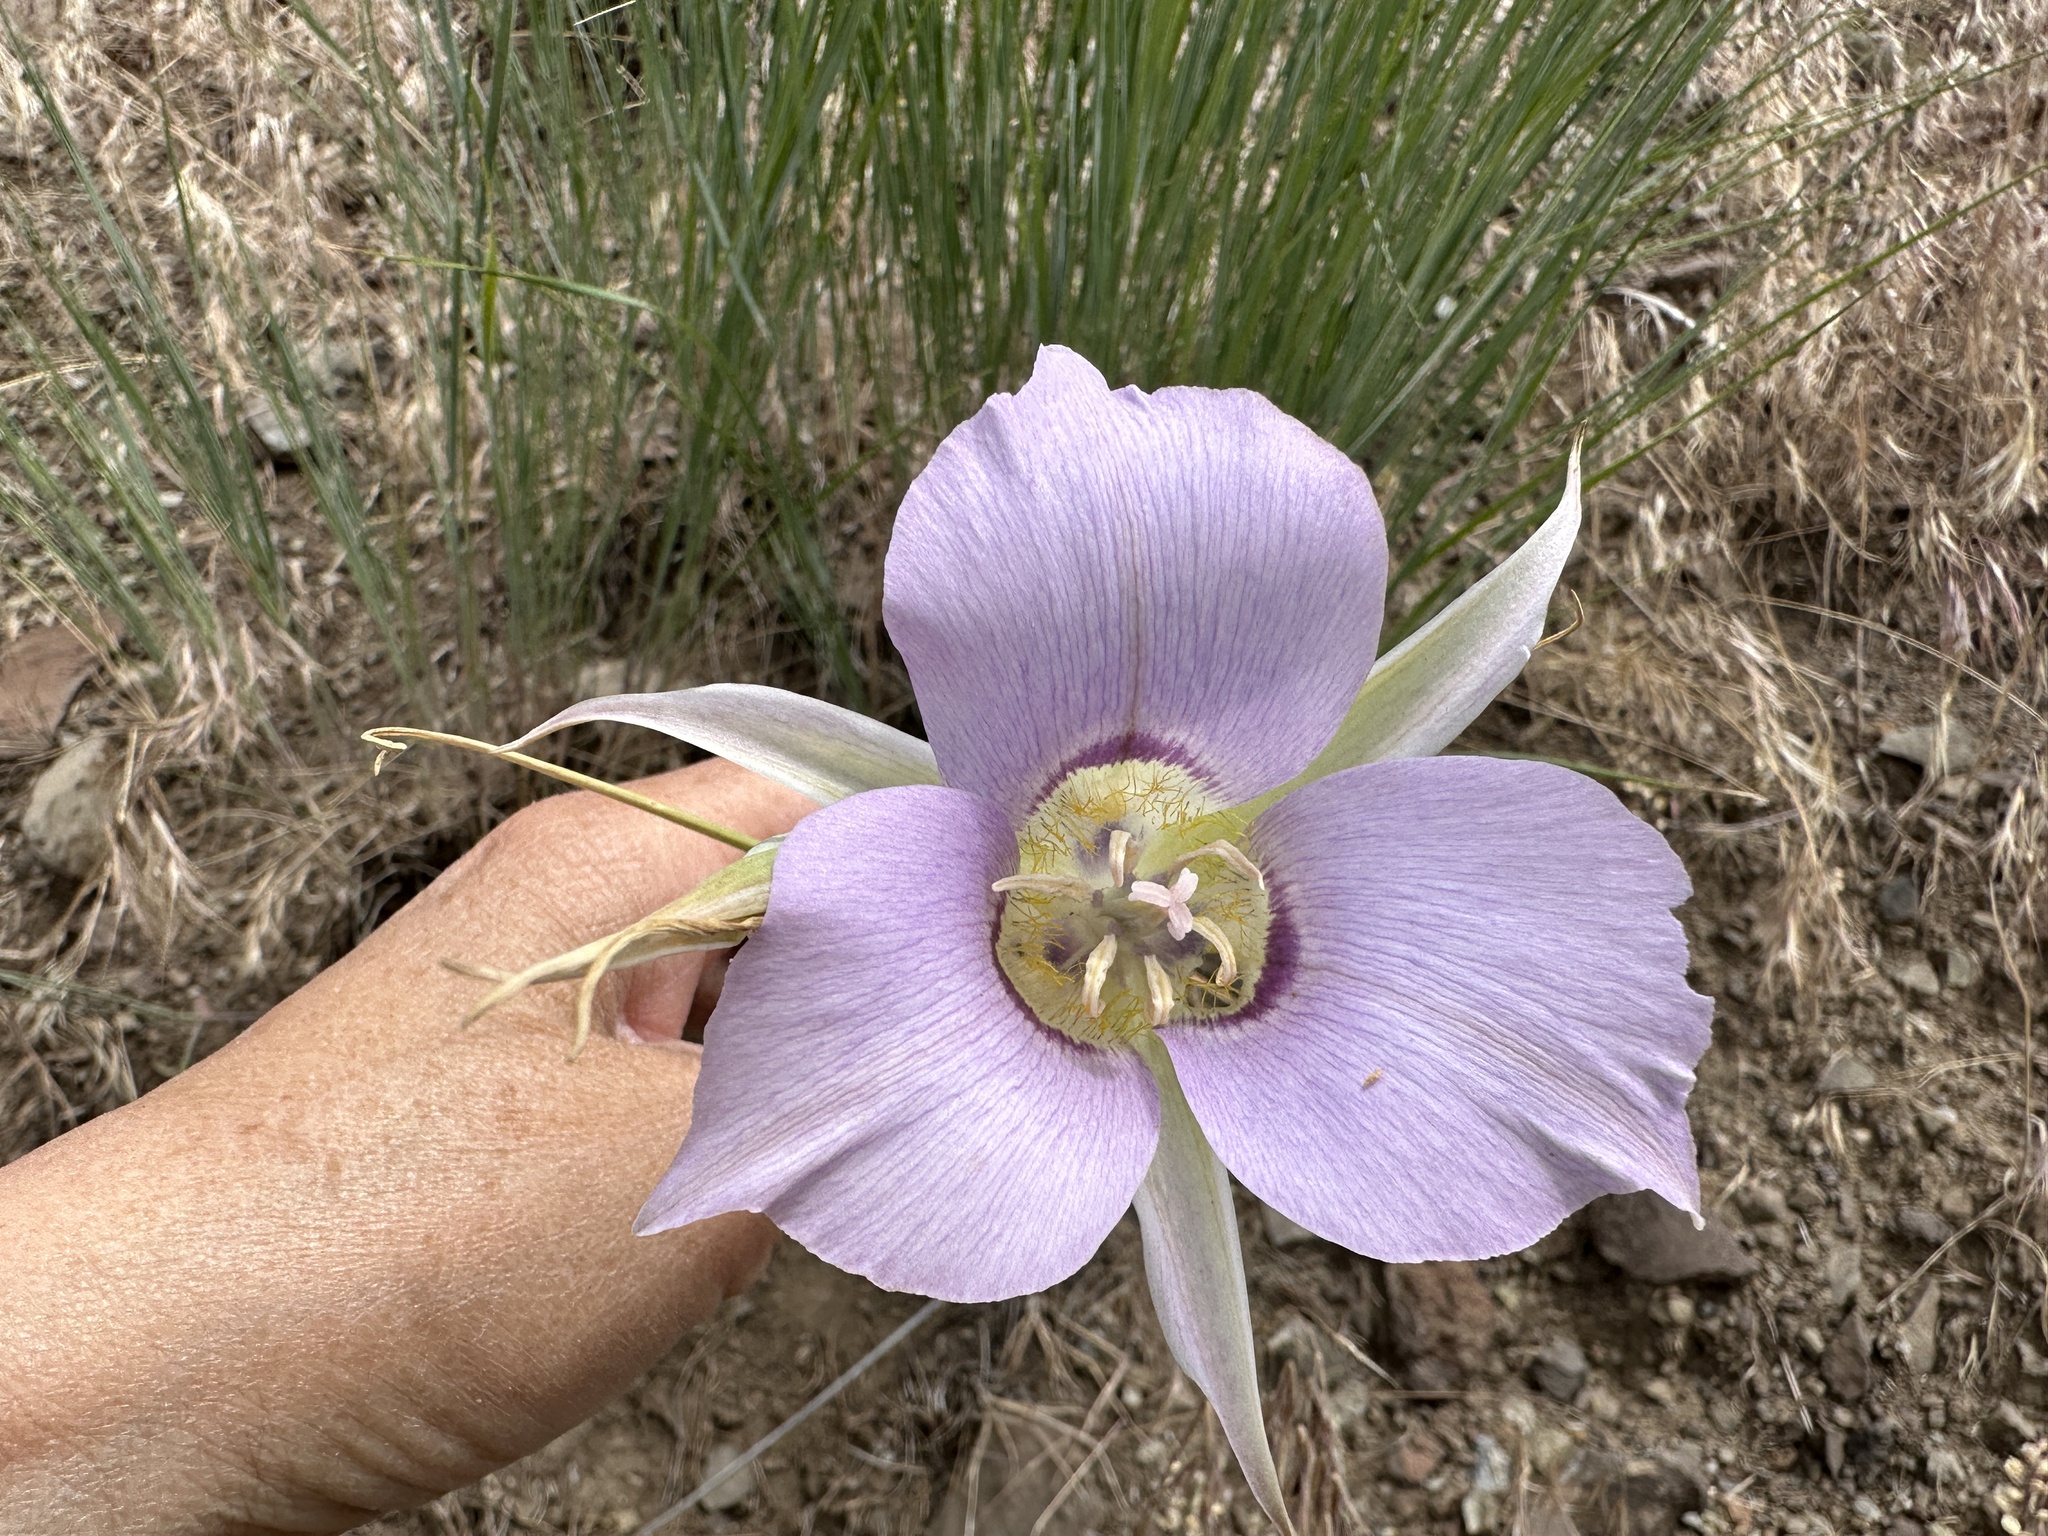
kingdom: Plantae
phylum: Tracheophyta
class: Liliopsida
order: Liliales
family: Liliaceae
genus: Calochortus
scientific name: Calochortus macrocarpus
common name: Green-band mariposa lily
